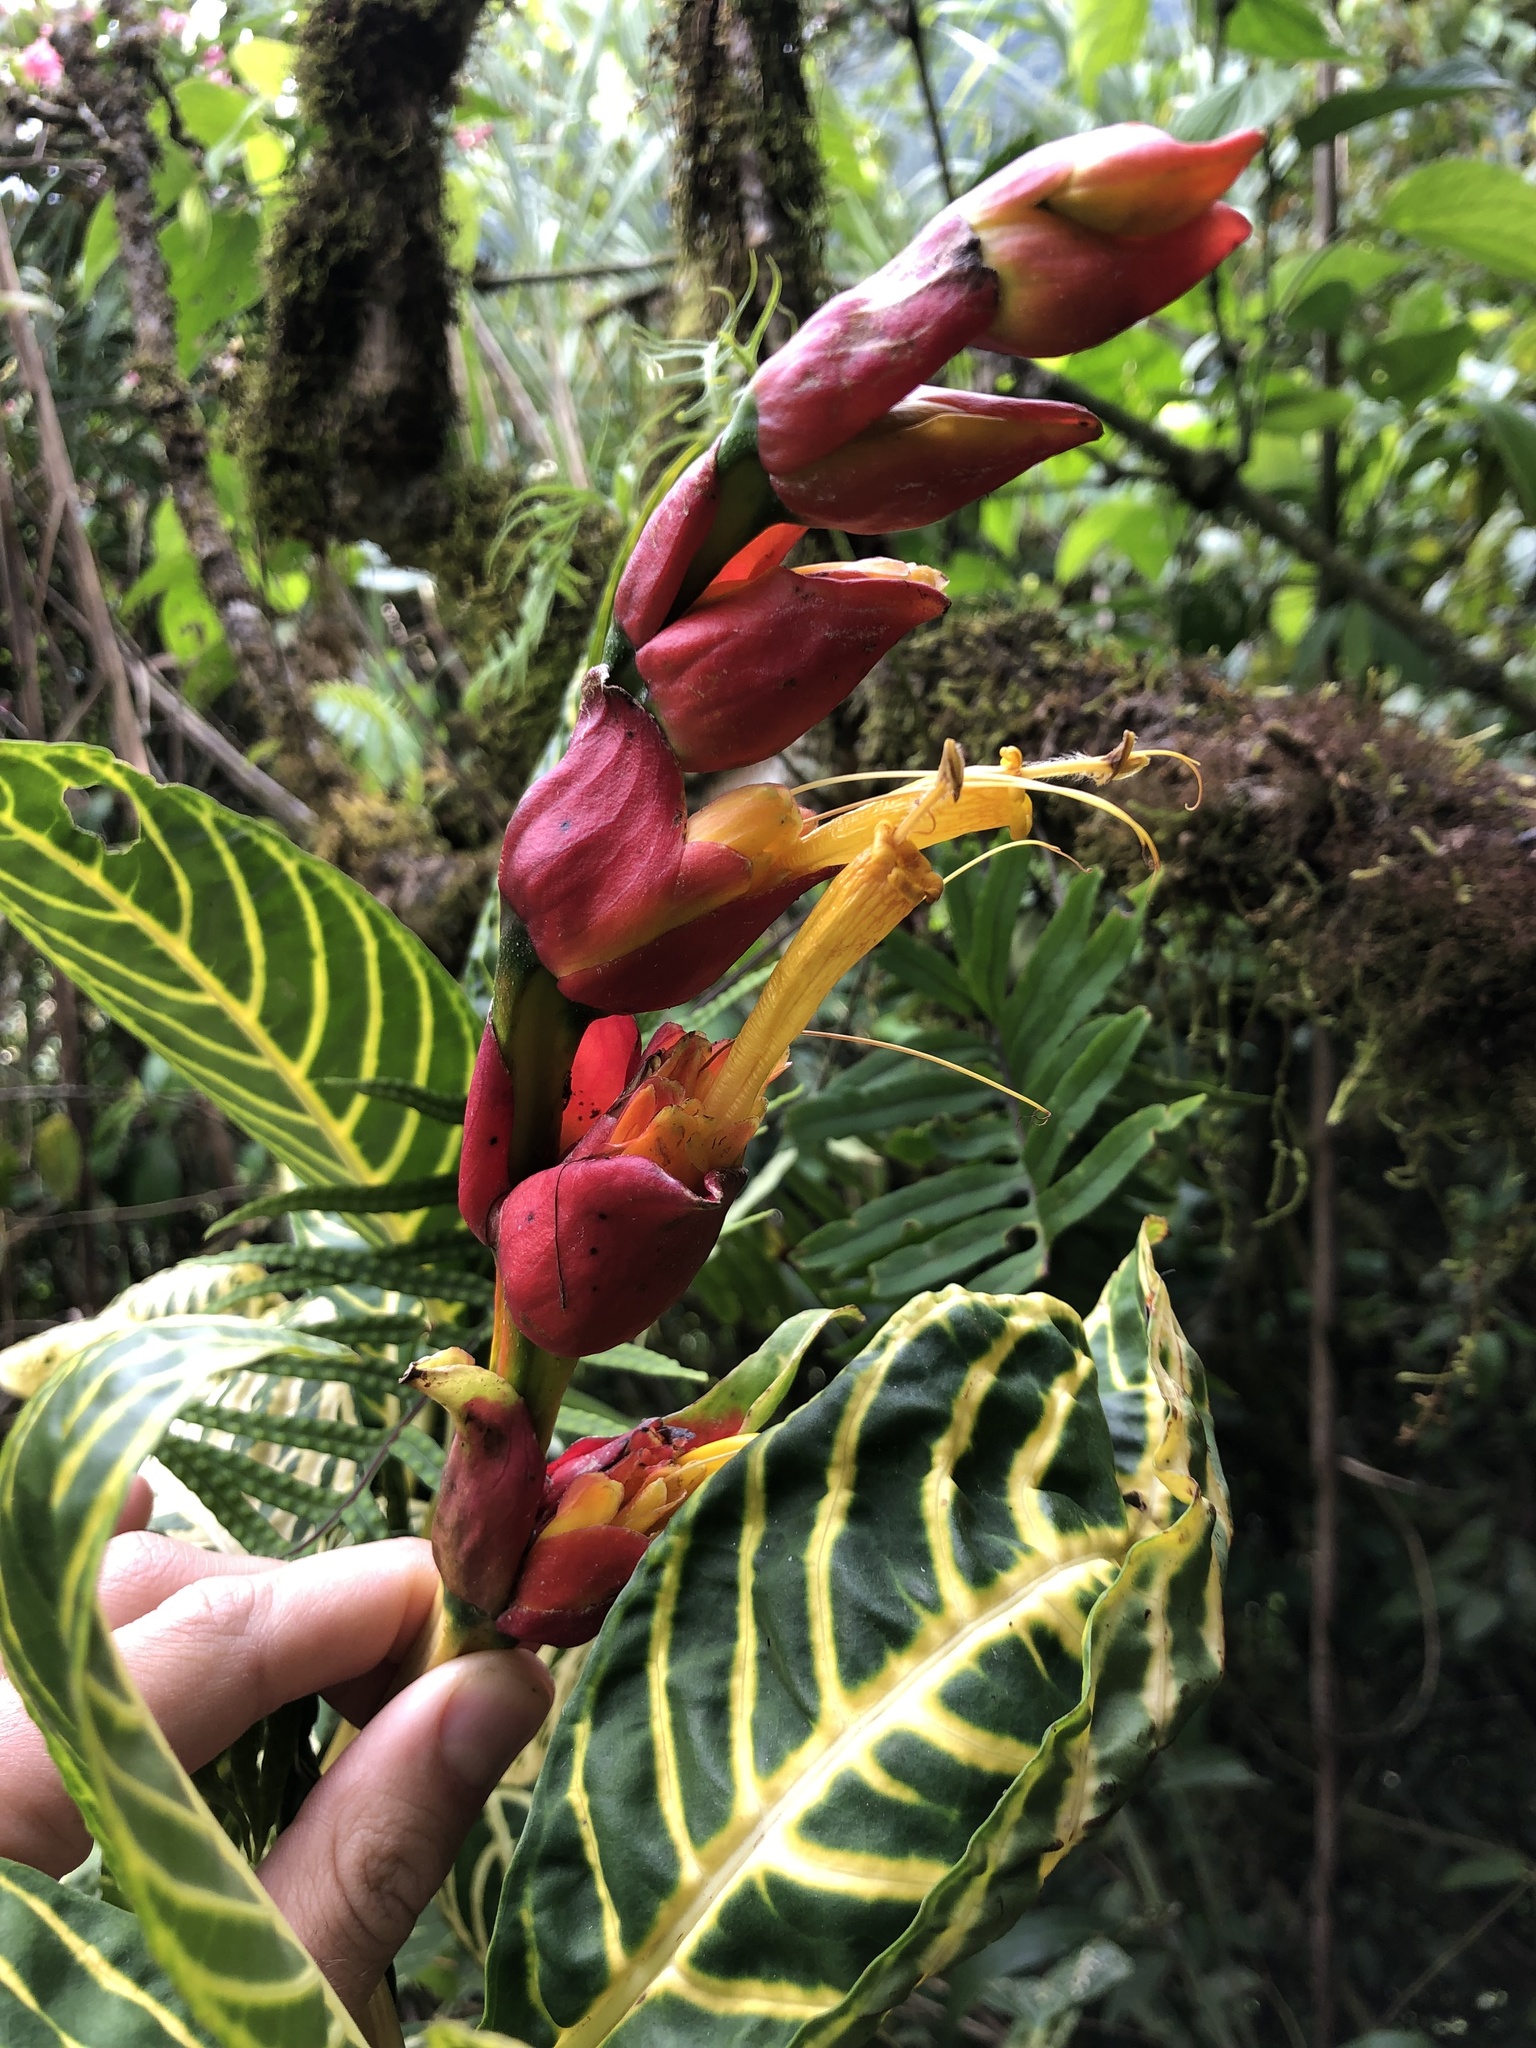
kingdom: Plantae
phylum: Tracheophyta
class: Magnoliopsida
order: Lamiales
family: Acanthaceae
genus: Sanchezia
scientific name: Sanchezia oblonga
